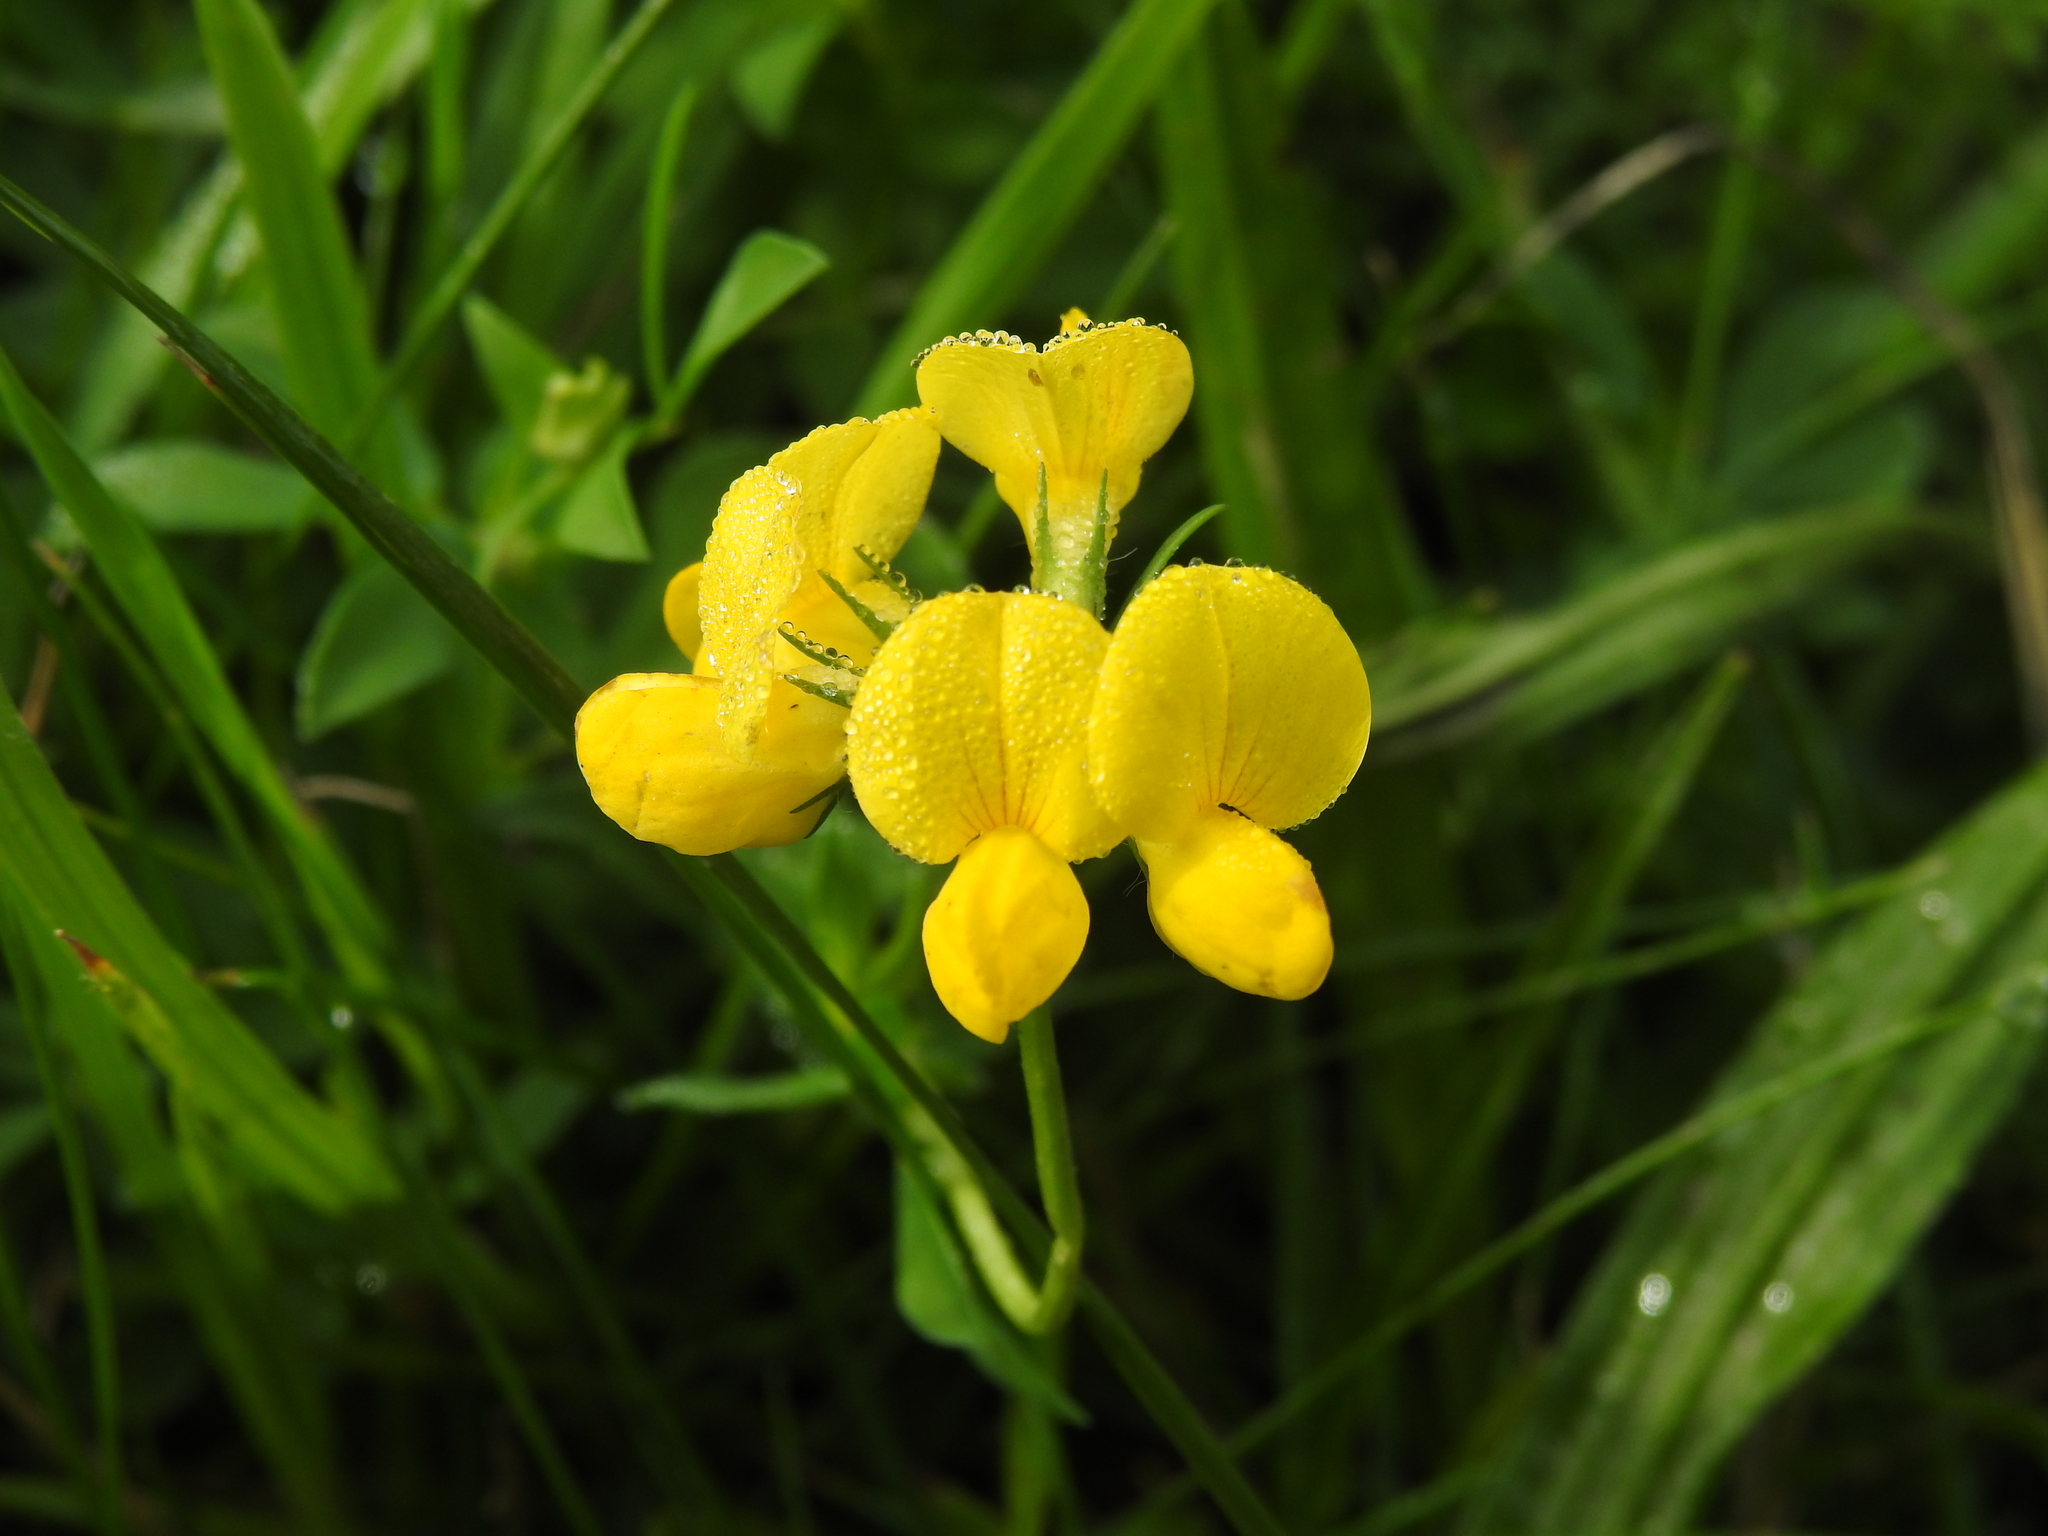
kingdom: Plantae
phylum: Tracheophyta
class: Magnoliopsida
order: Fabales
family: Fabaceae
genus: Lotus
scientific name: Lotus corniculatus
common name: Common bird's-foot-trefoil
